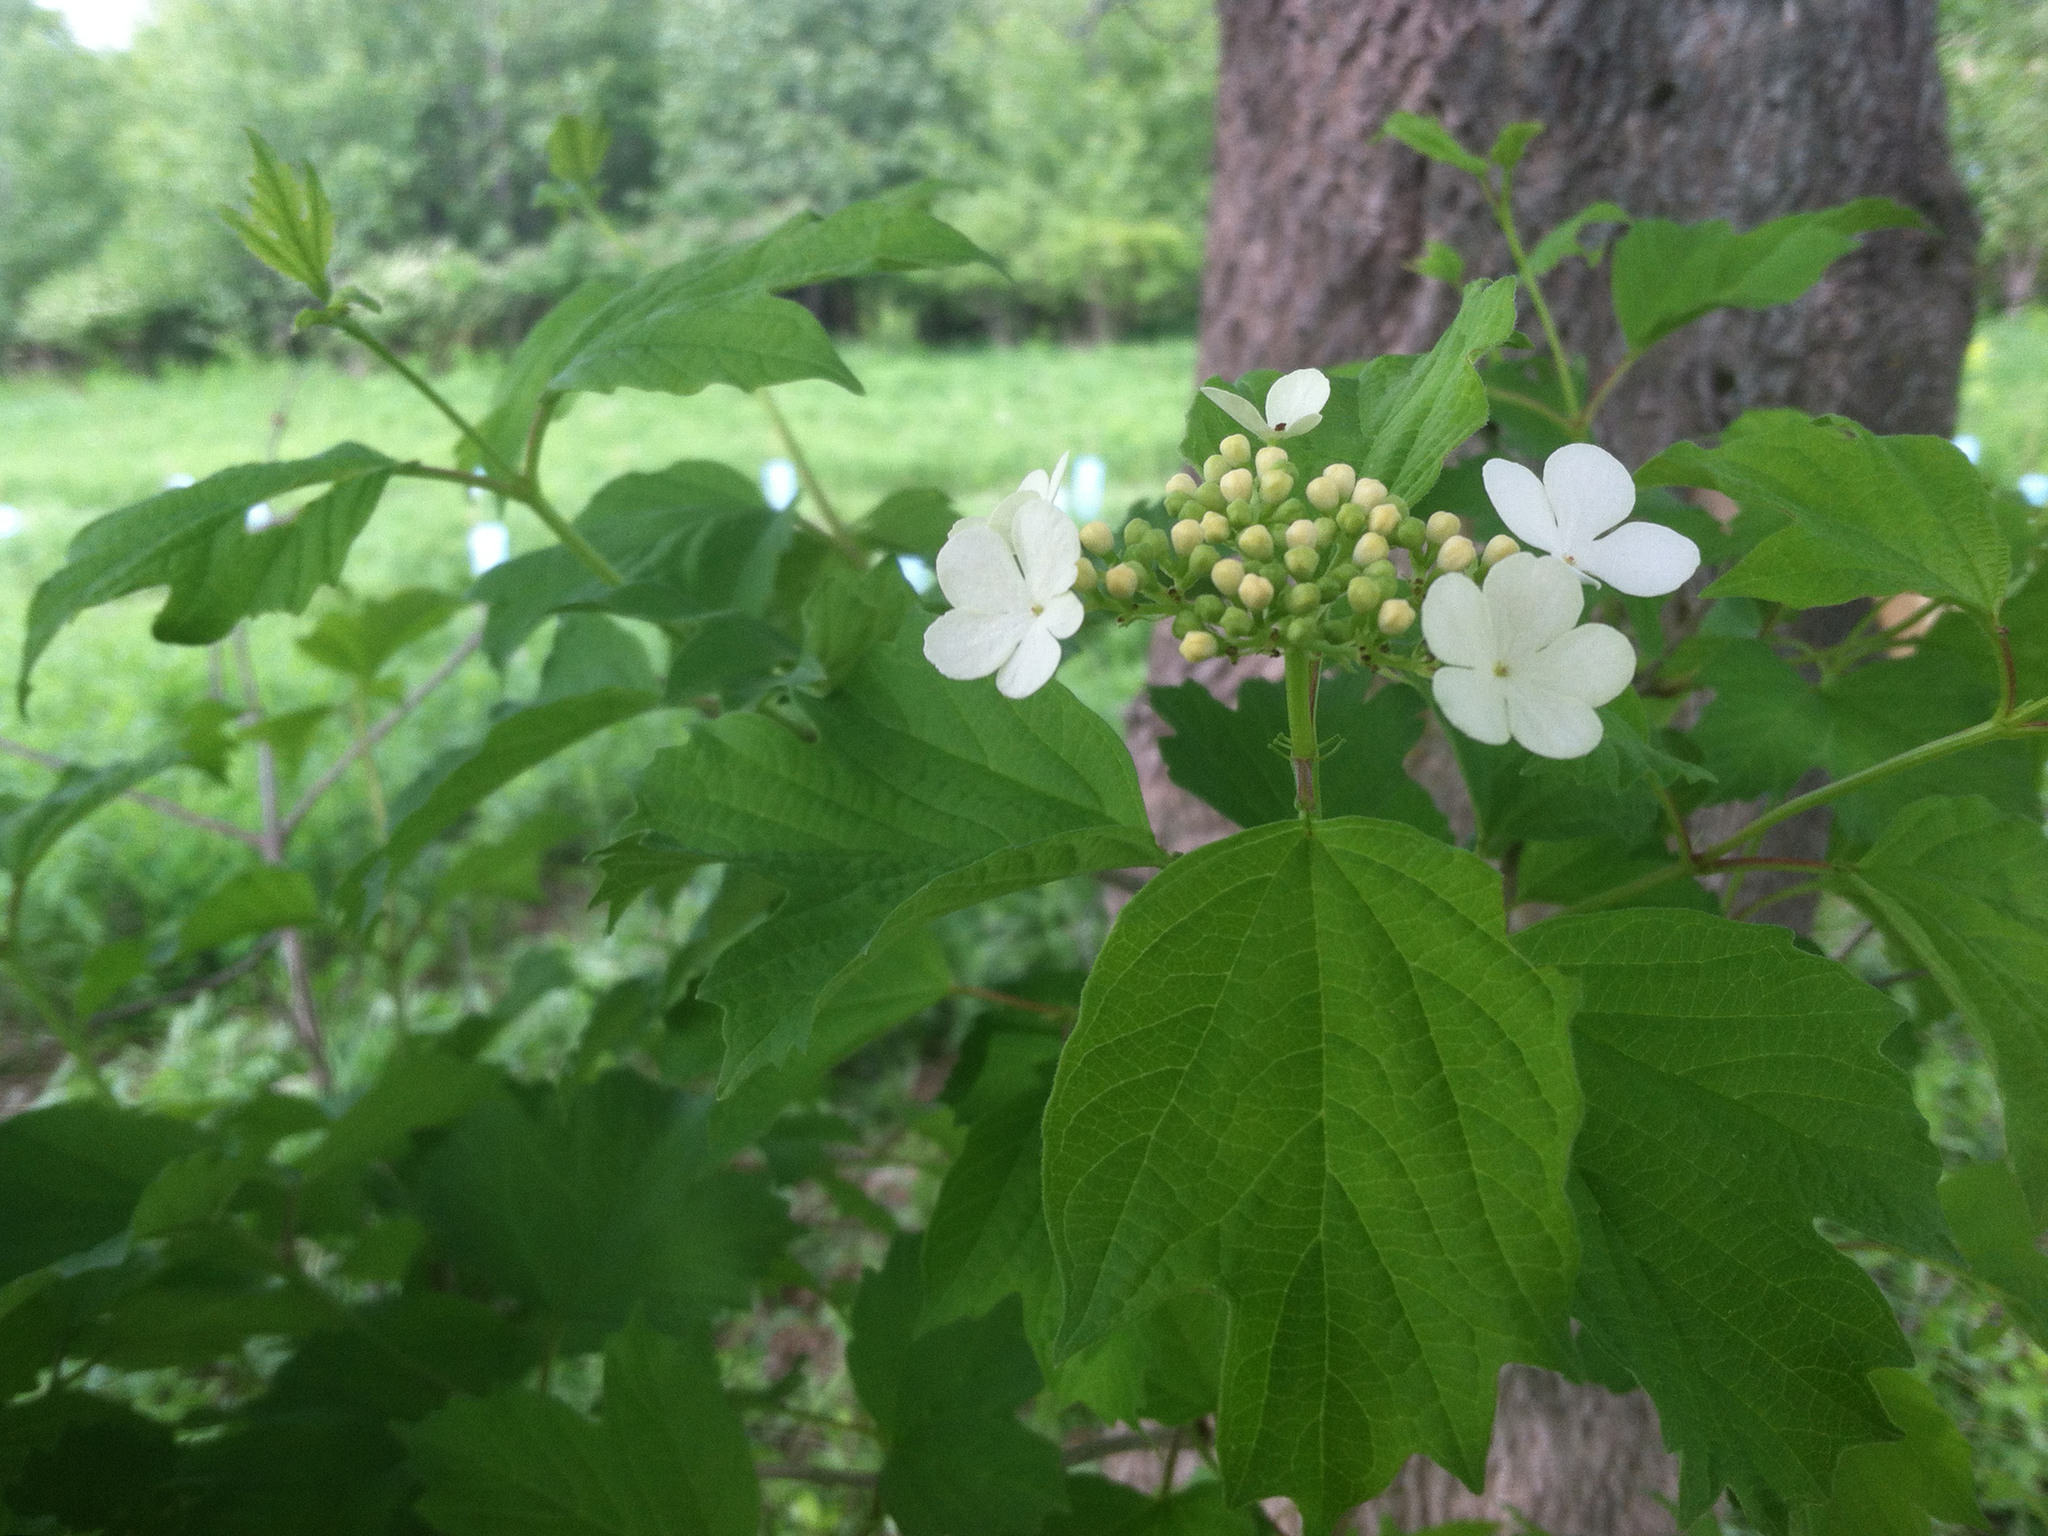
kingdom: Plantae
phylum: Tracheophyta
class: Magnoliopsida
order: Dipsacales
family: Viburnaceae
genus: Viburnum
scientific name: Viburnum opulus
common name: Guelder-rose
